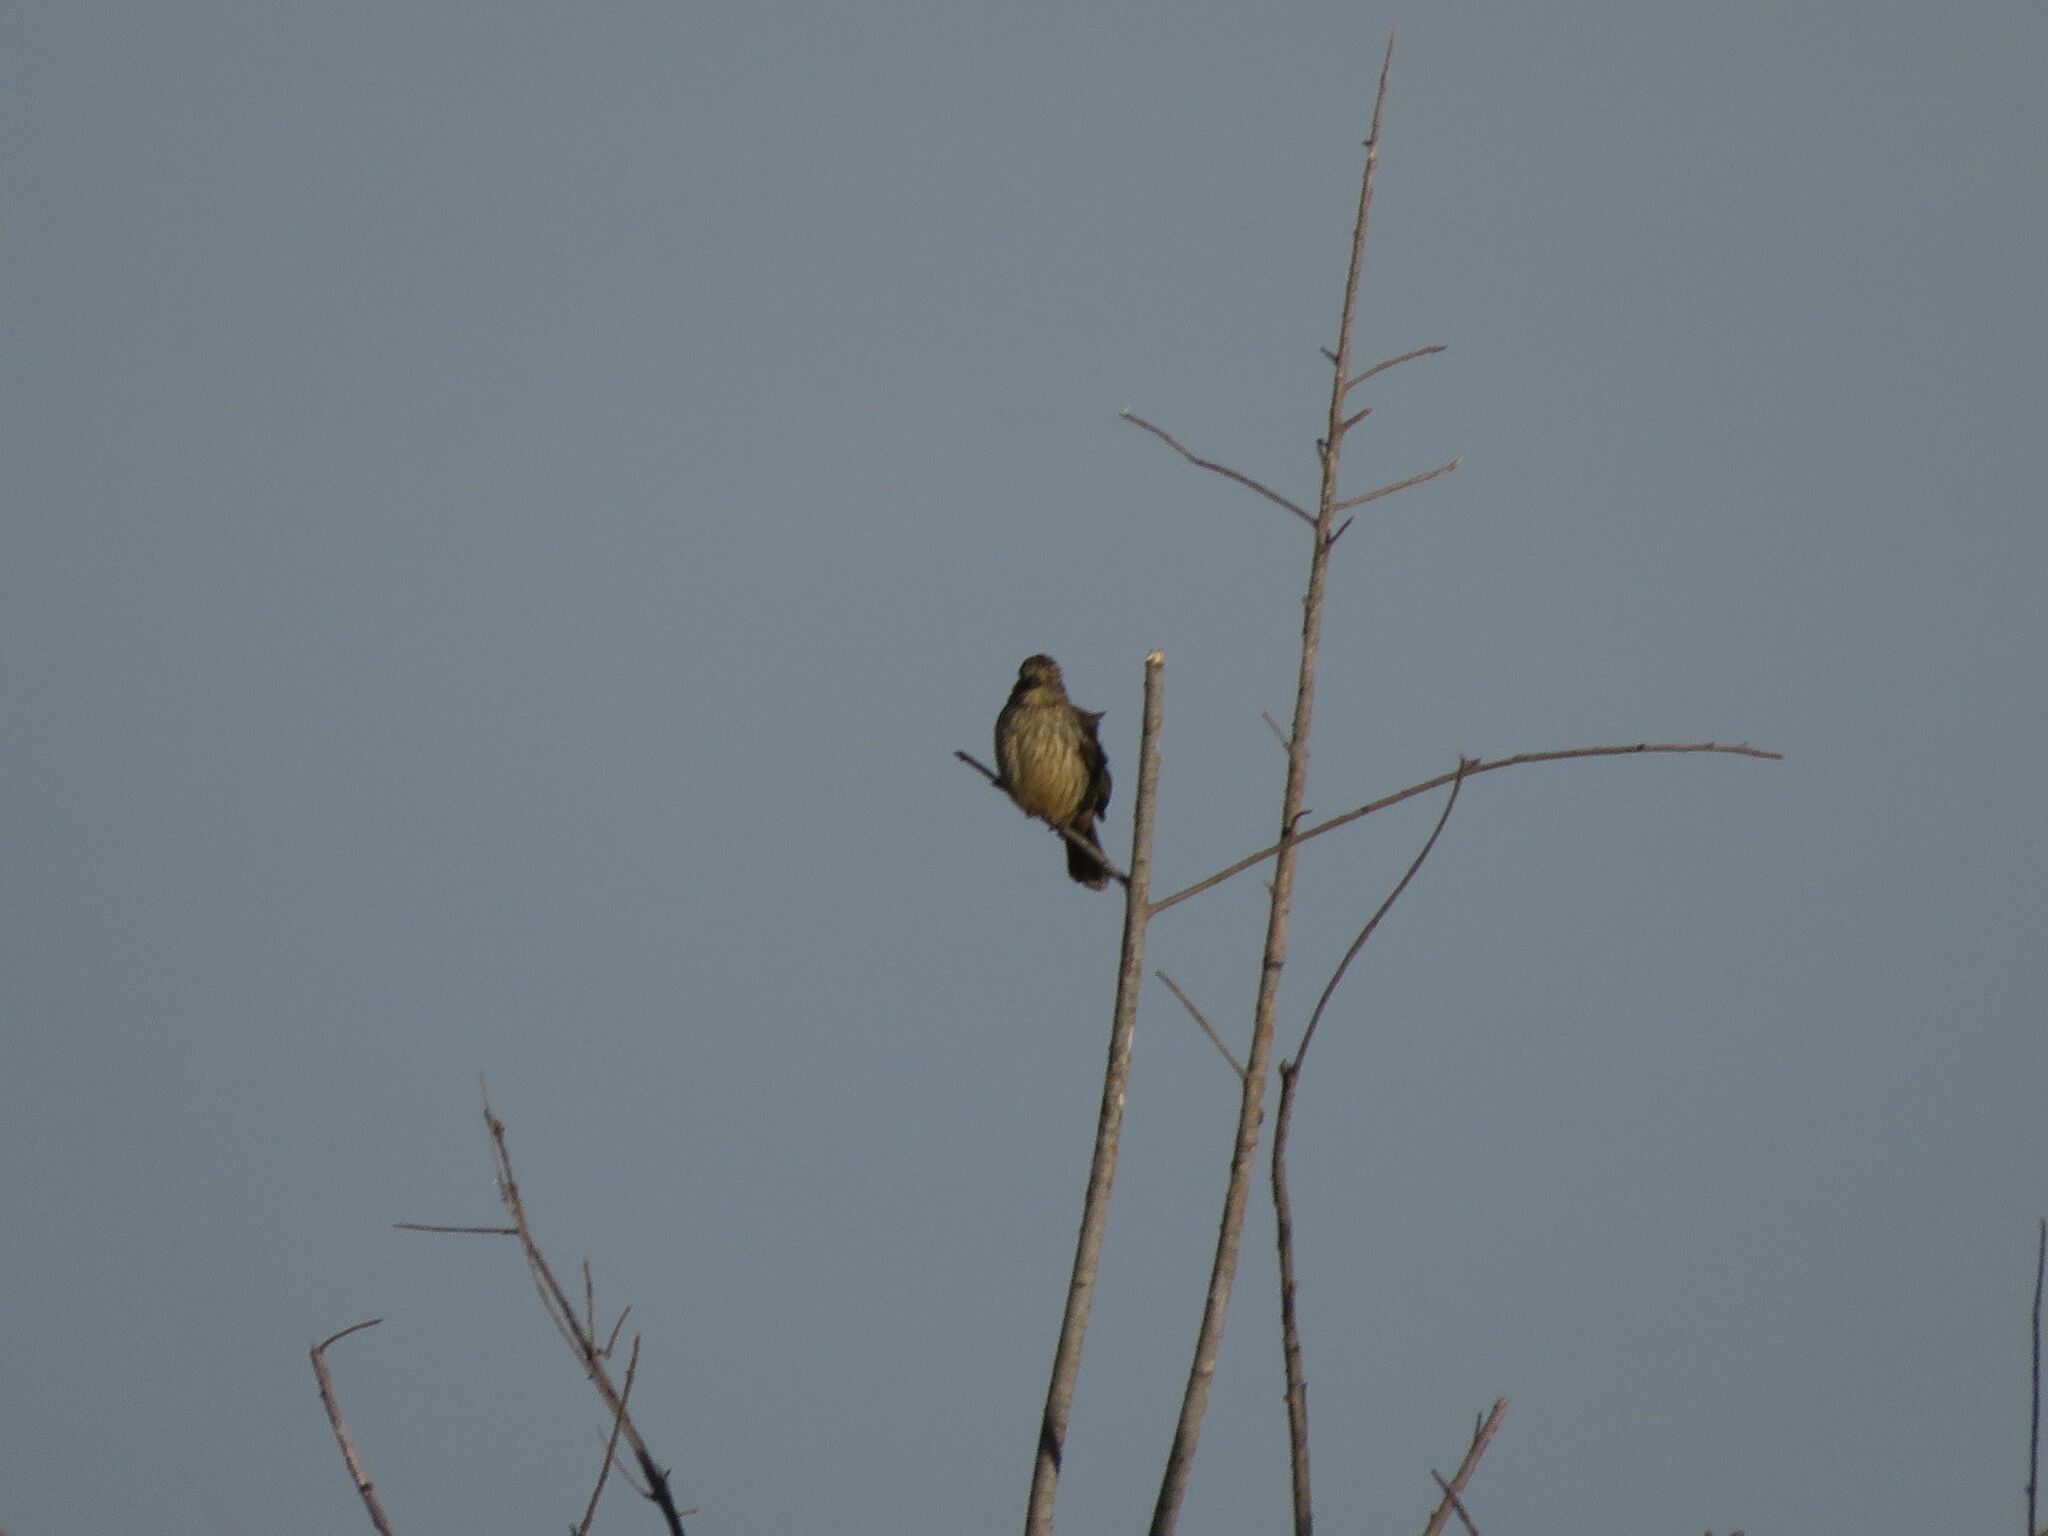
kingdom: Animalia
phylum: Chordata
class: Aves
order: Passeriformes
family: Cotingidae
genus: Phytotoma
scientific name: Phytotoma rutila
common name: White-tipped plantcutter
